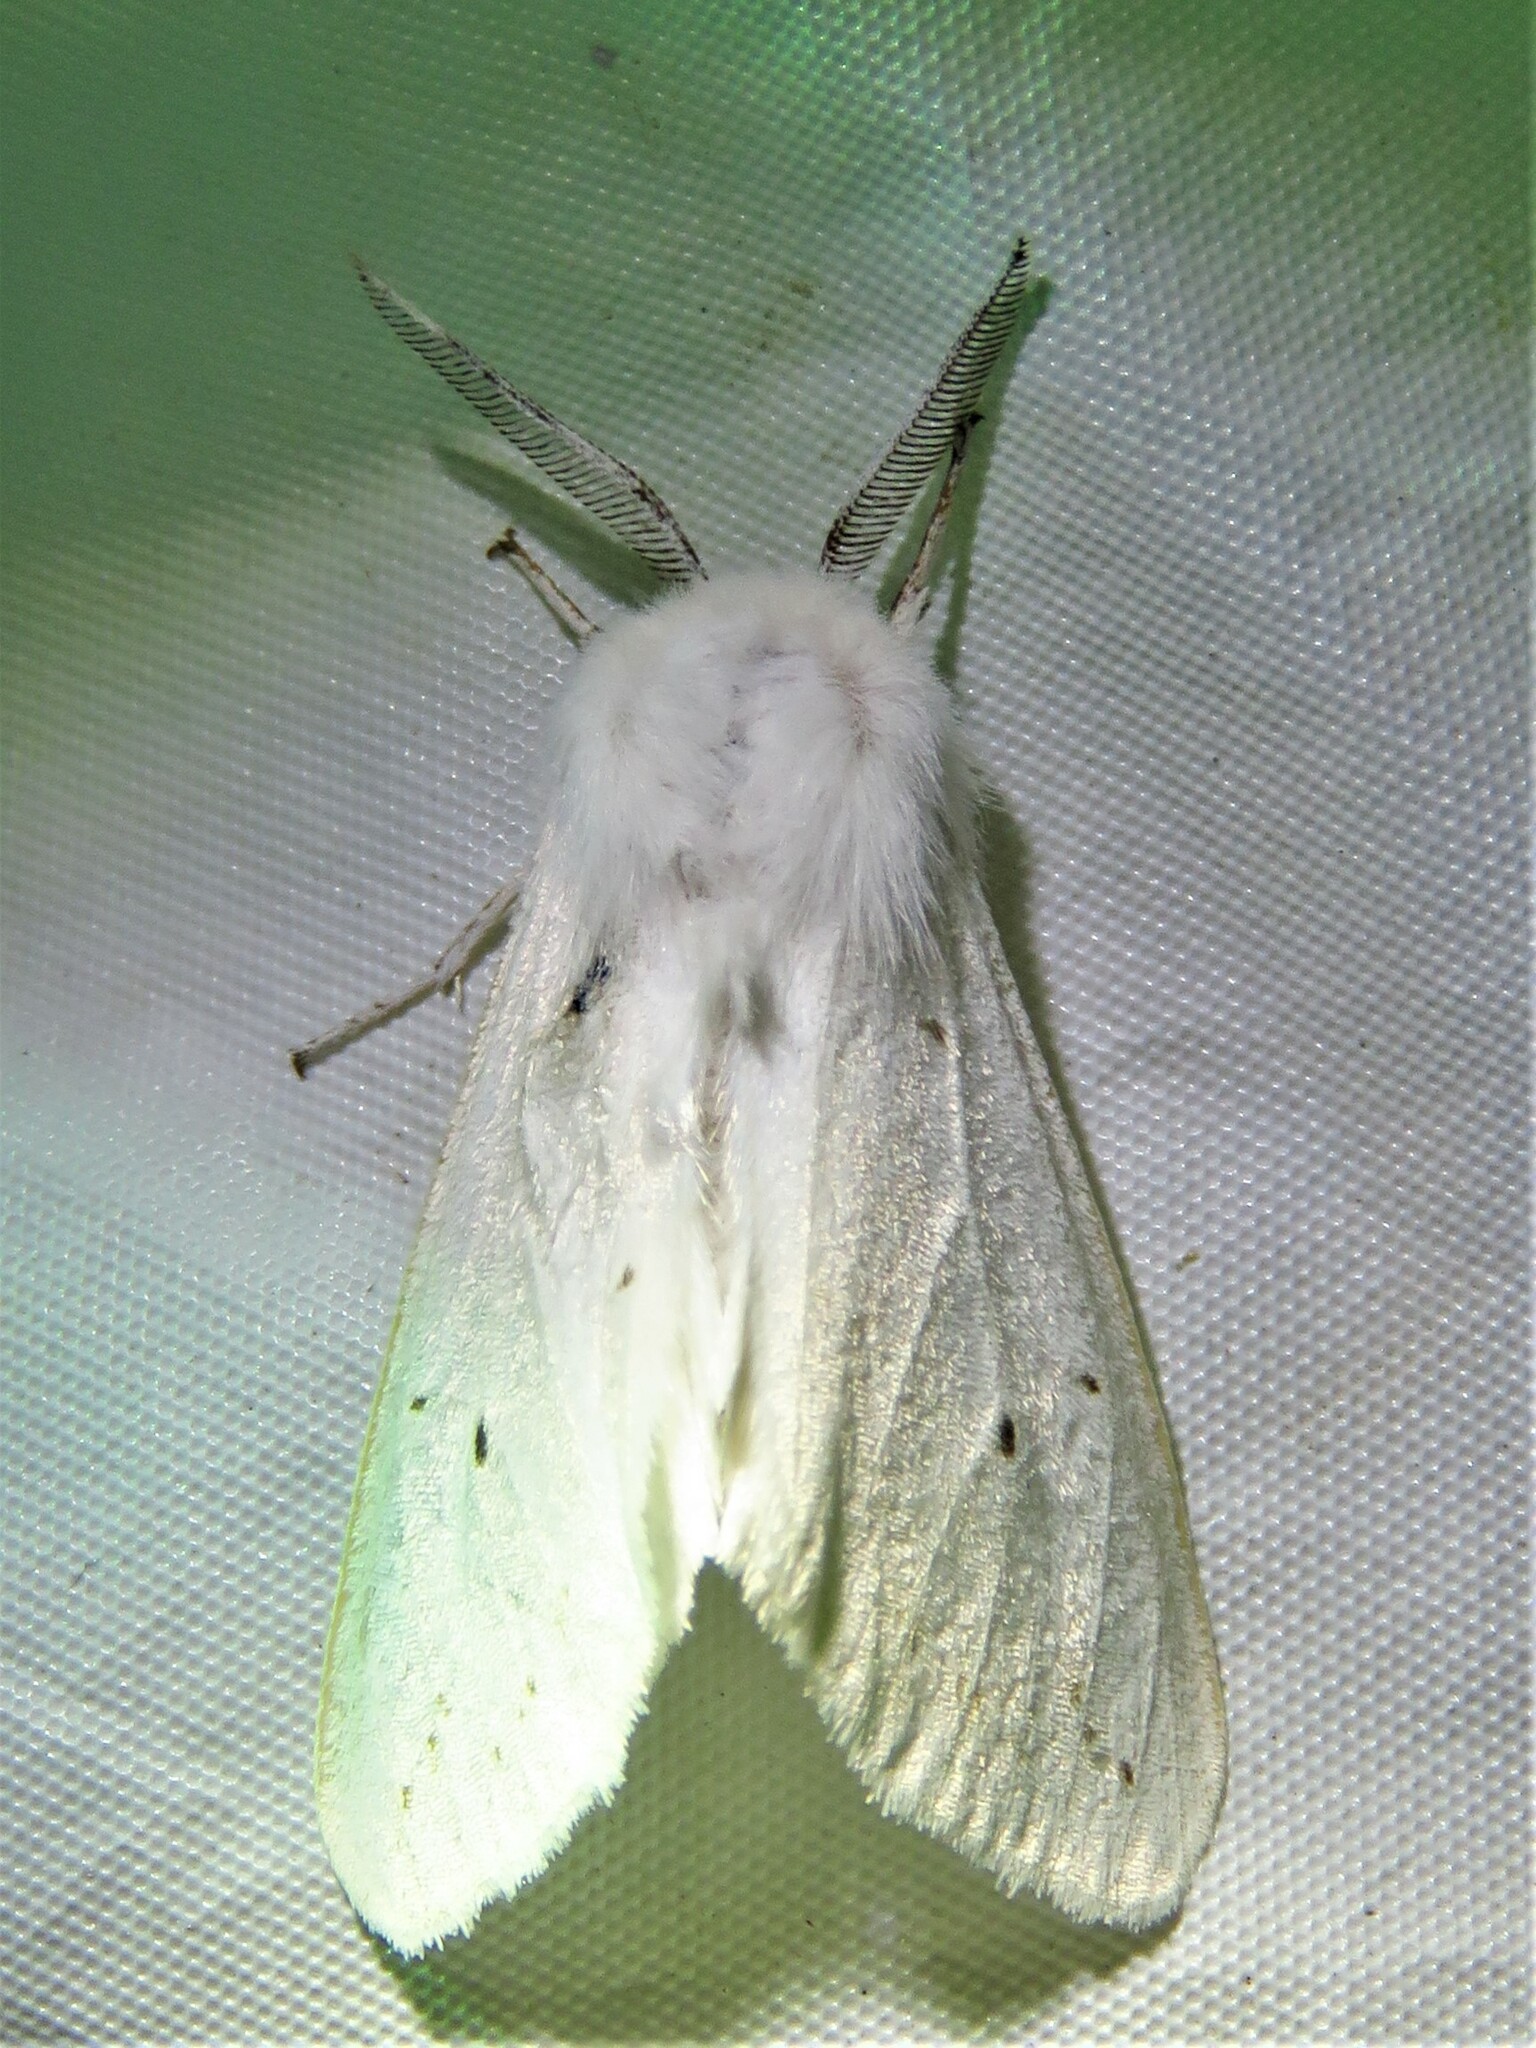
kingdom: Animalia
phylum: Arthropoda
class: Insecta
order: Lepidoptera
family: Erebidae
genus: Spilosoma
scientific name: Spilosoma congrua
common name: Agreeable tiger moth
